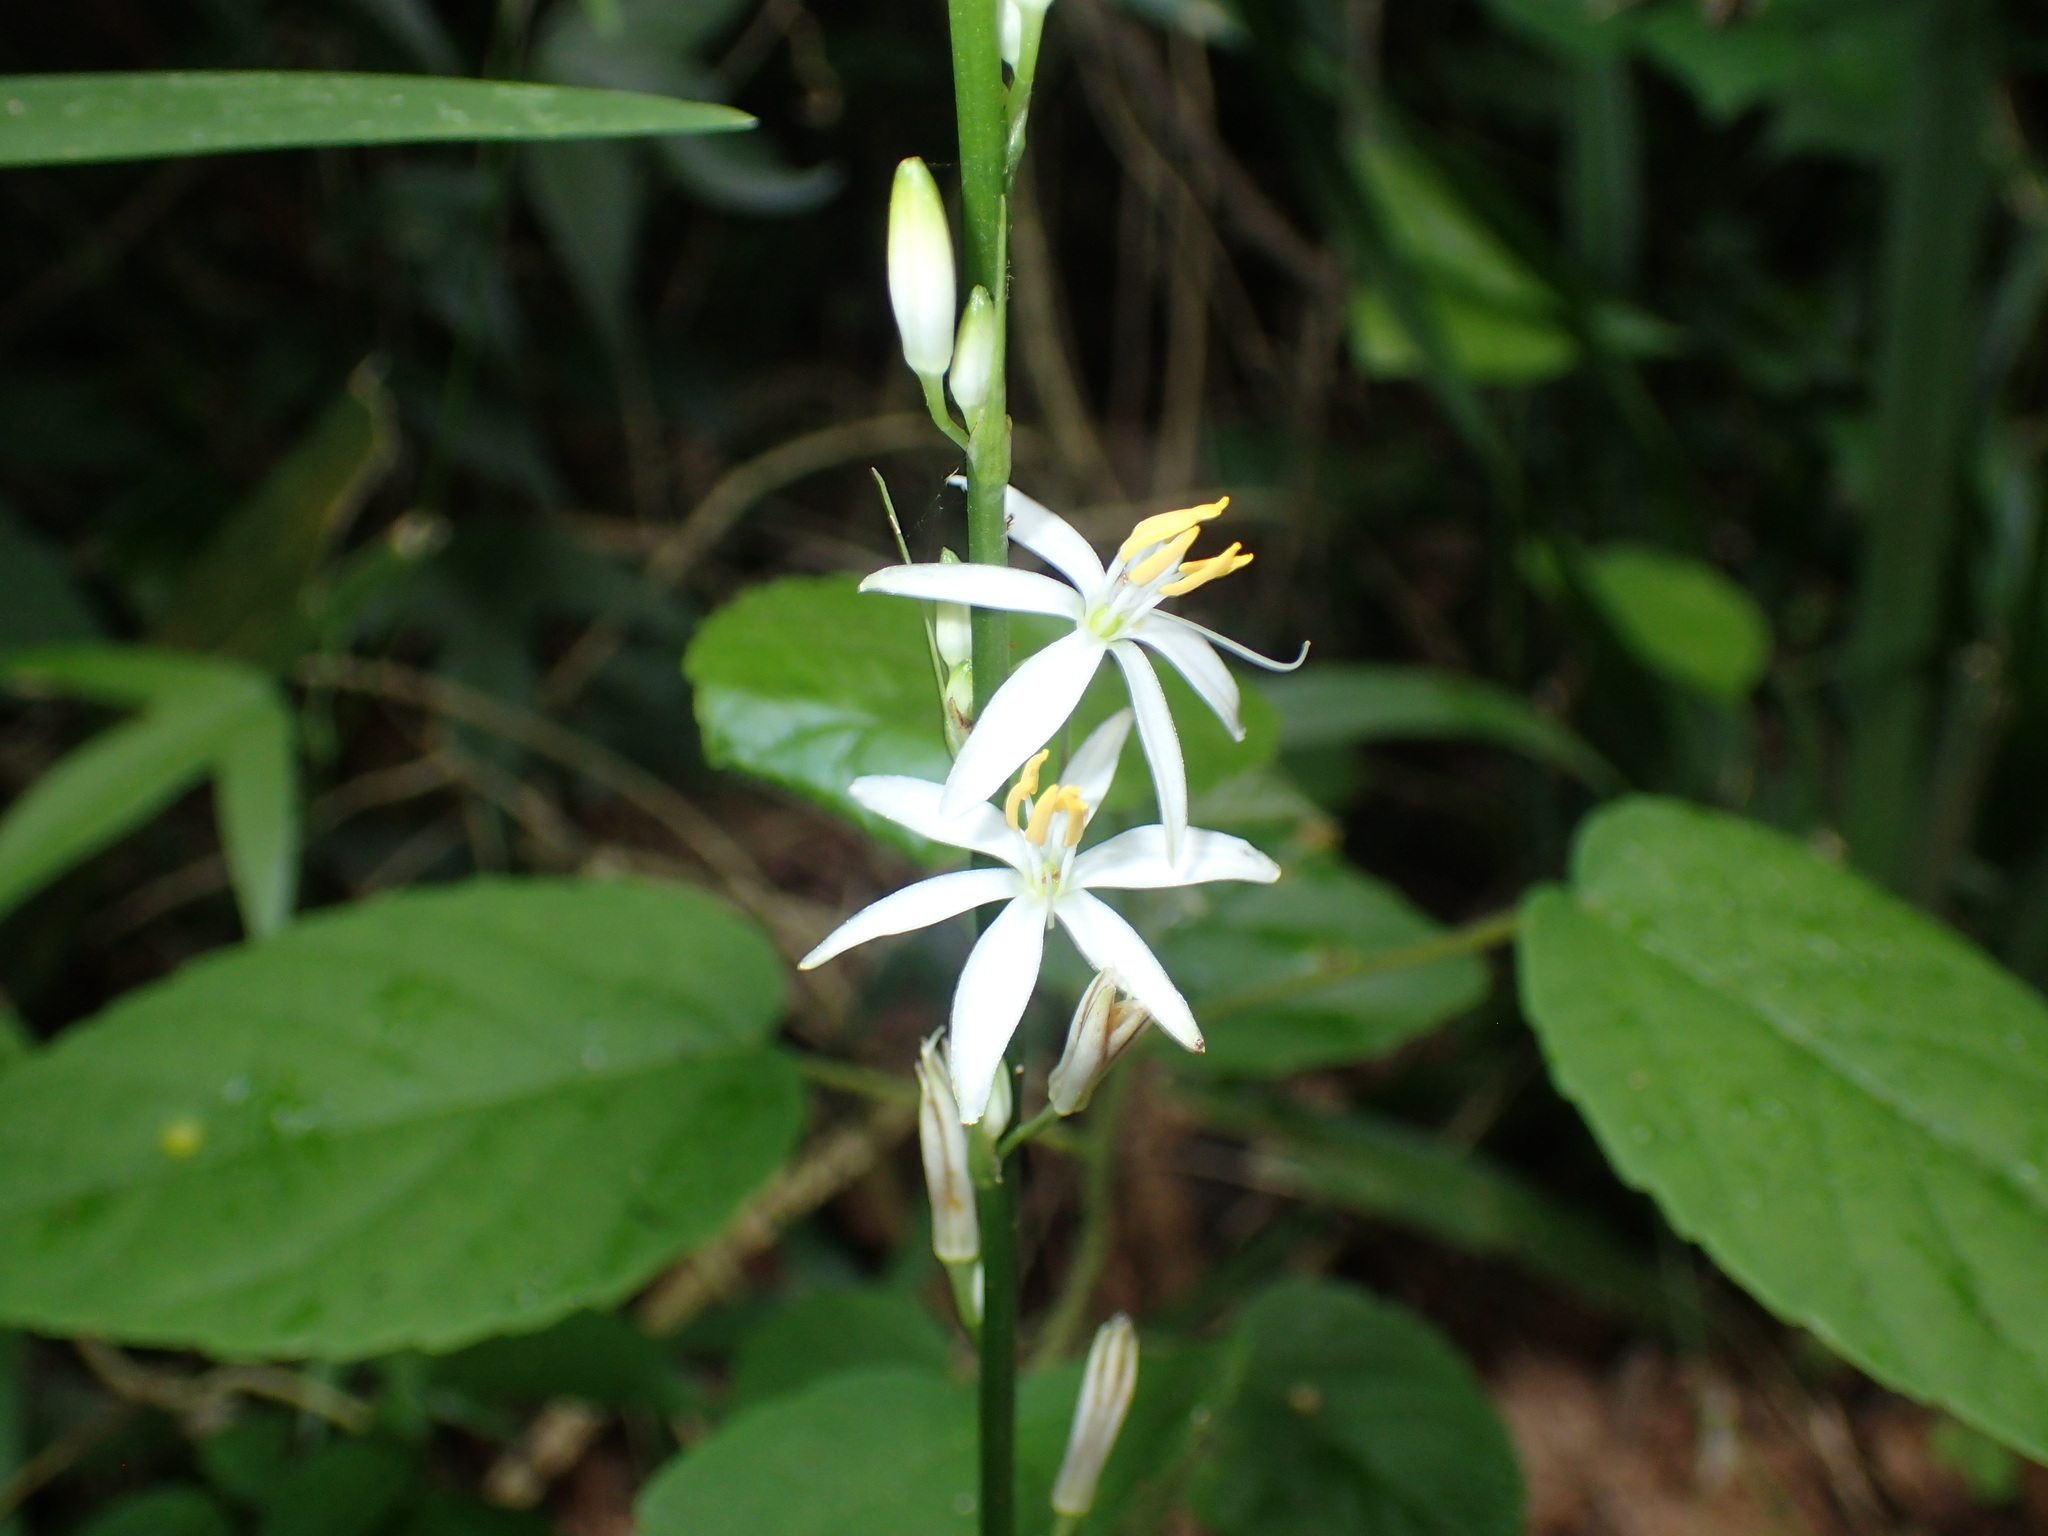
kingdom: Plantae
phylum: Tracheophyta
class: Liliopsida
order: Asparagales
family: Asparagaceae
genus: Chlorophytum
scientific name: Chlorophytum bowkeri
